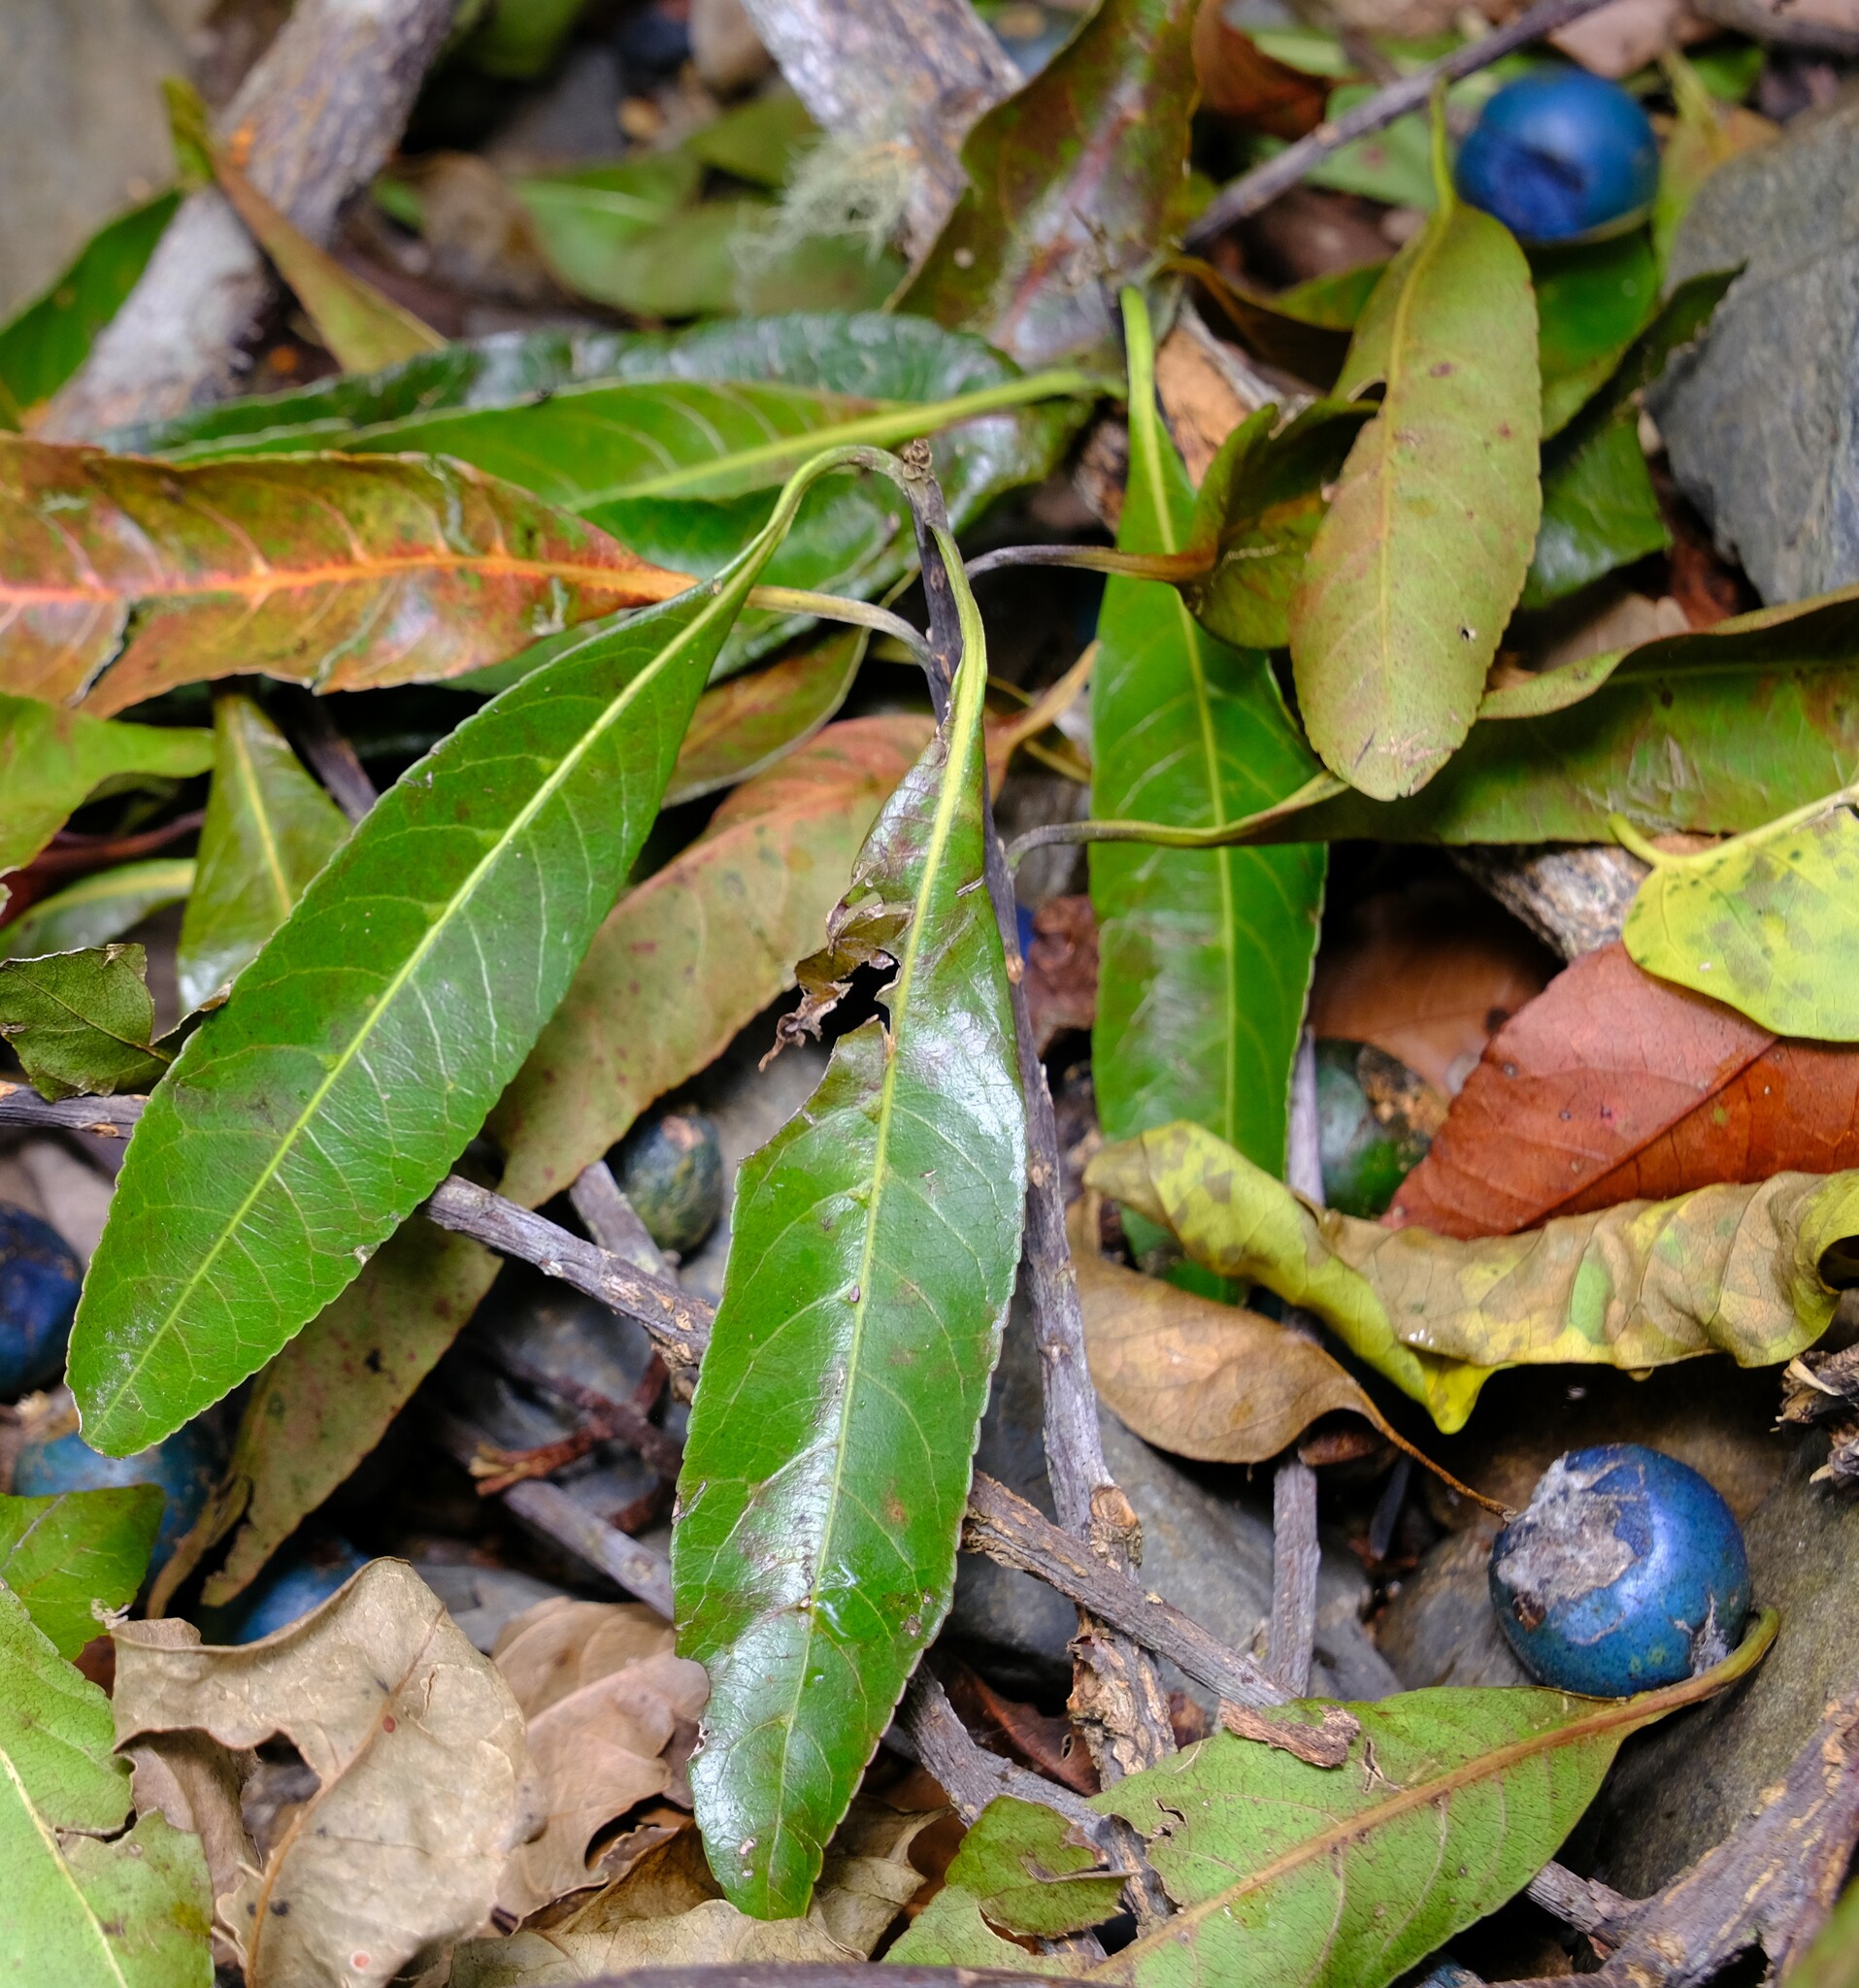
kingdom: Plantae
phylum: Tracheophyta
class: Magnoliopsida
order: Oxalidales
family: Elaeocarpaceae
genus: Elaeocarpus
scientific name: Elaeocarpus angustifolius
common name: Blue marble tree
